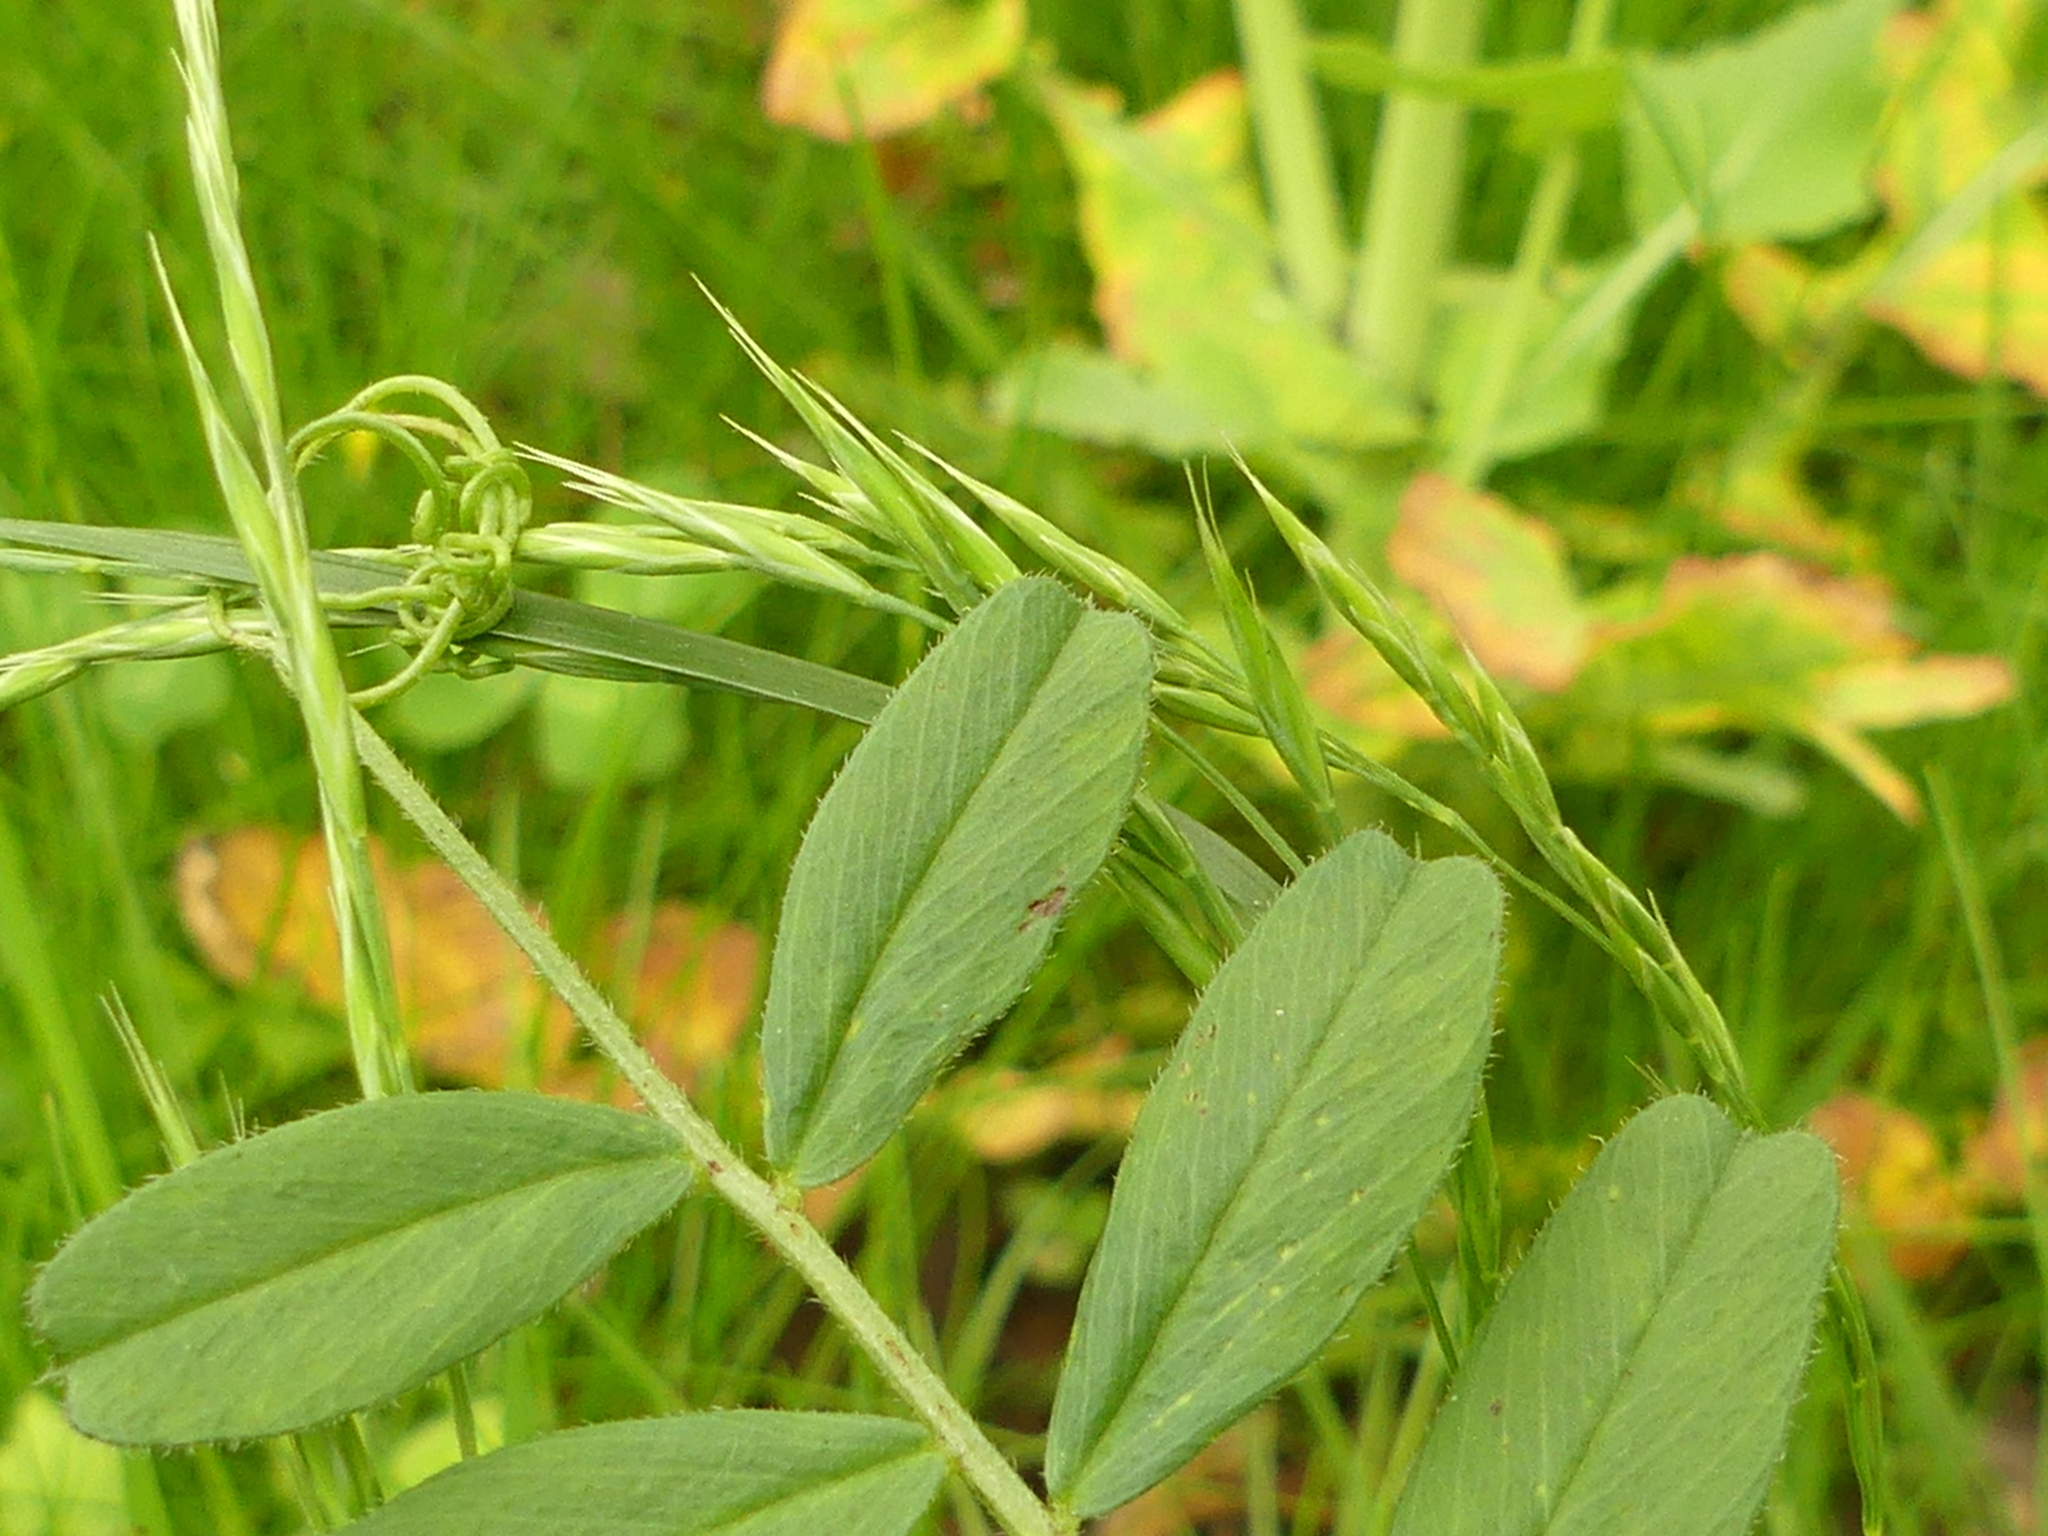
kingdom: Plantae
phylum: Tracheophyta
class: Magnoliopsida
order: Fabales
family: Fabaceae
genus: Vicia
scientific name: Vicia sativa
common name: Garden vetch
